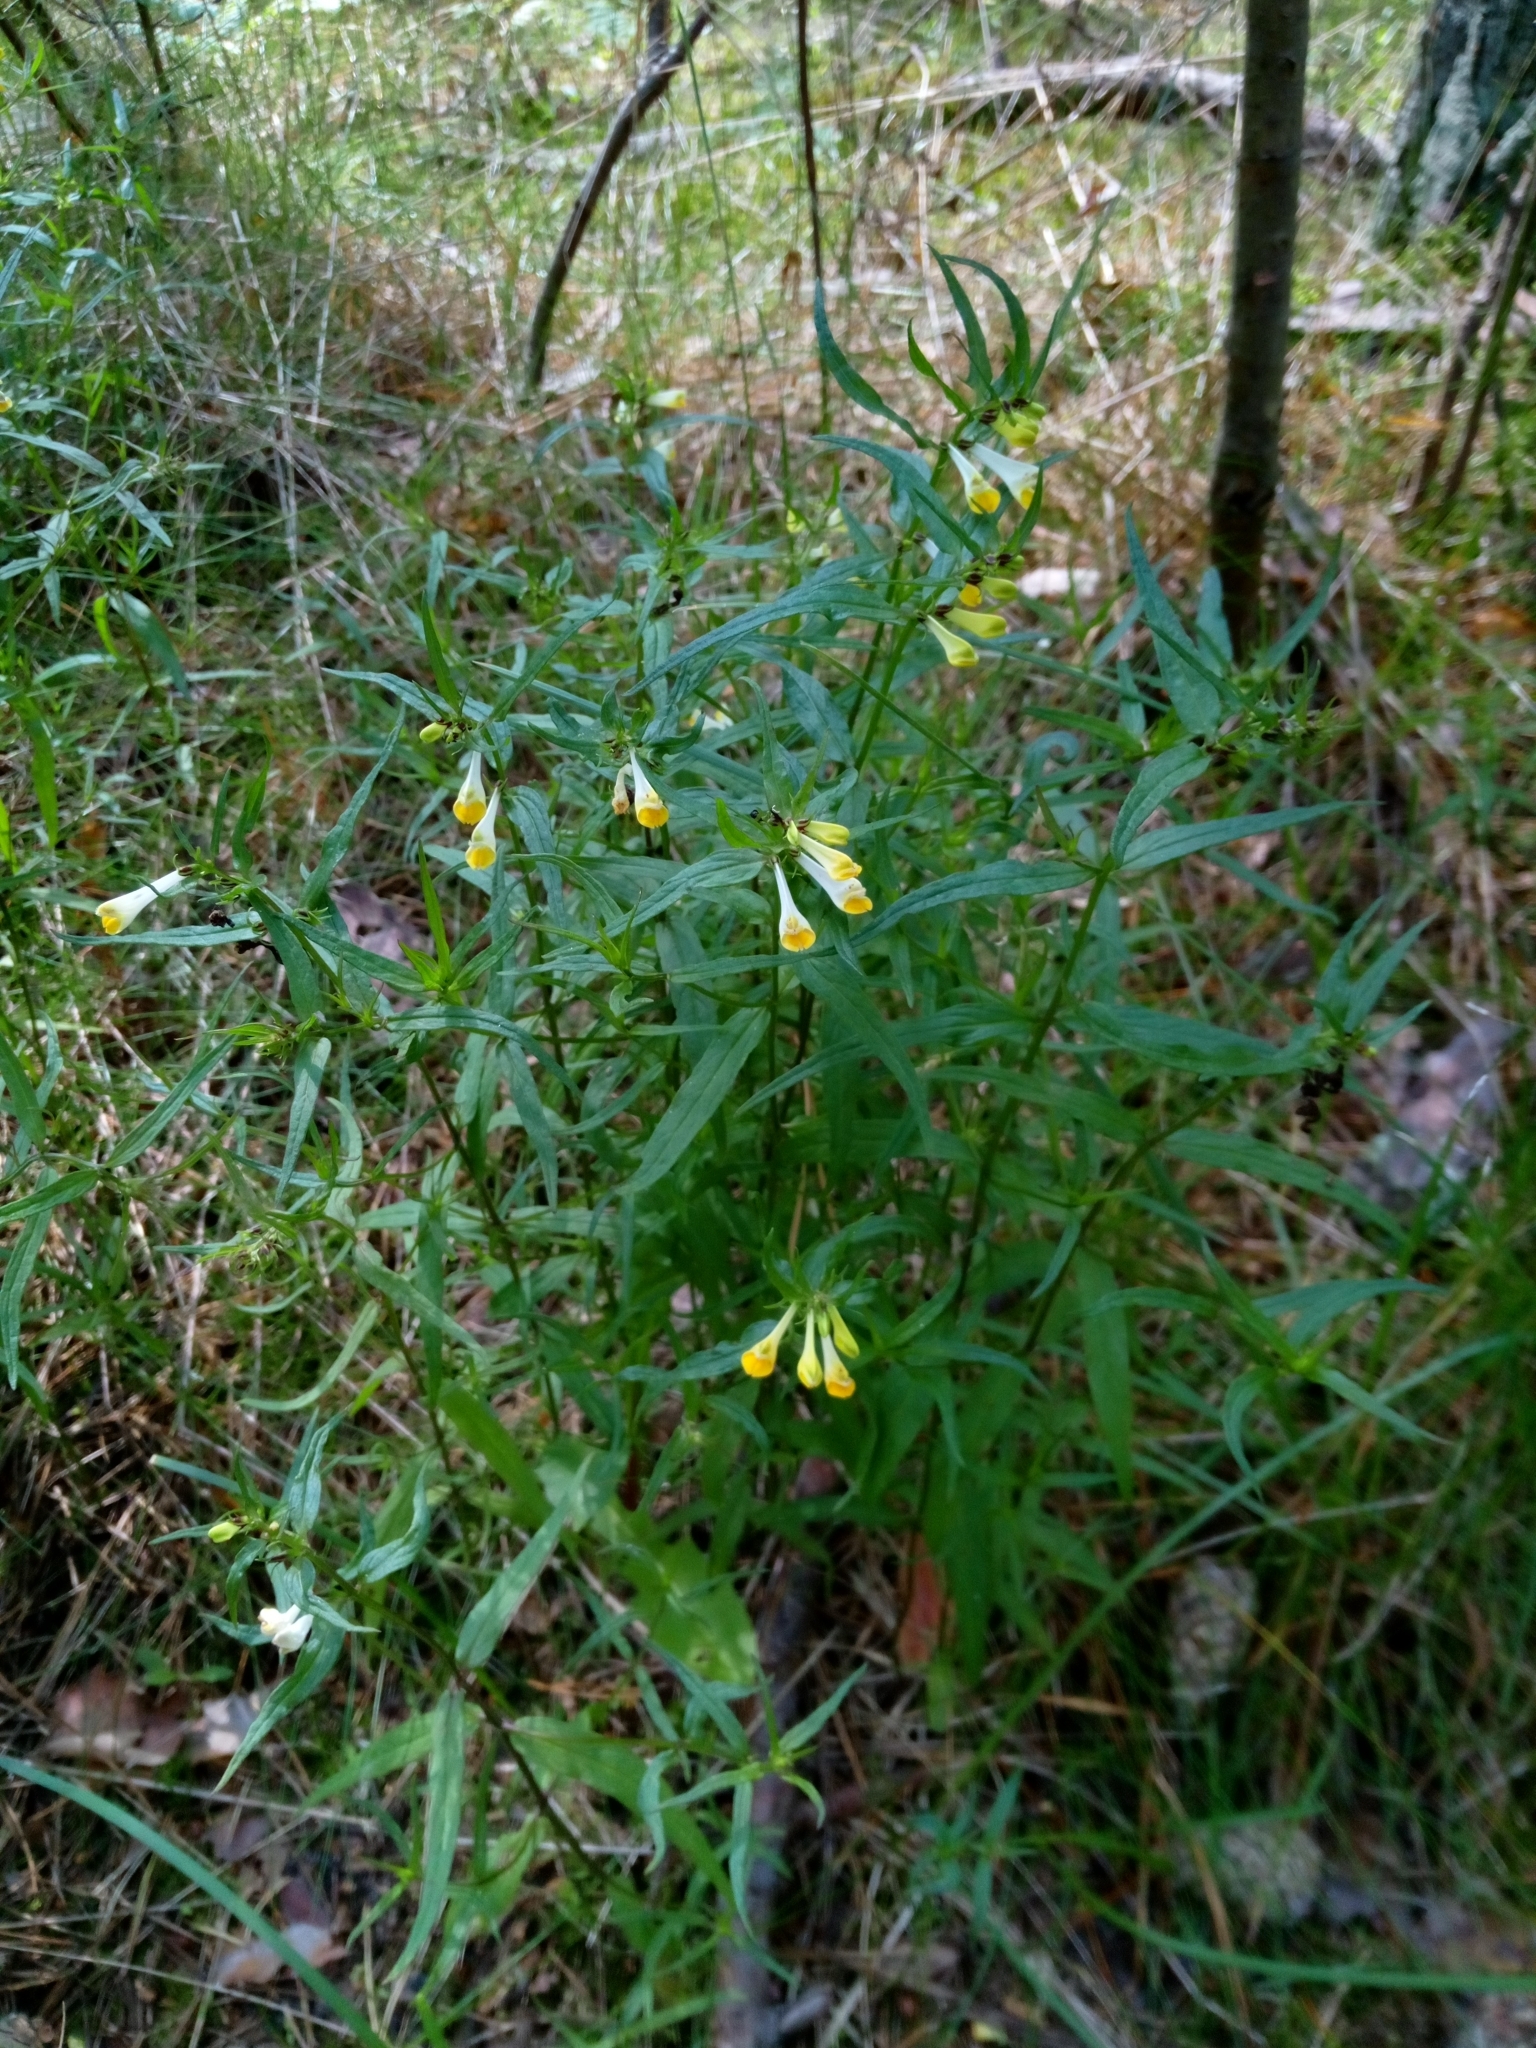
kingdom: Plantae
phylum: Tracheophyta
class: Magnoliopsida
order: Lamiales
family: Orobanchaceae
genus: Melampyrum
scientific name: Melampyrum pratense
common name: Common cow-wheat
